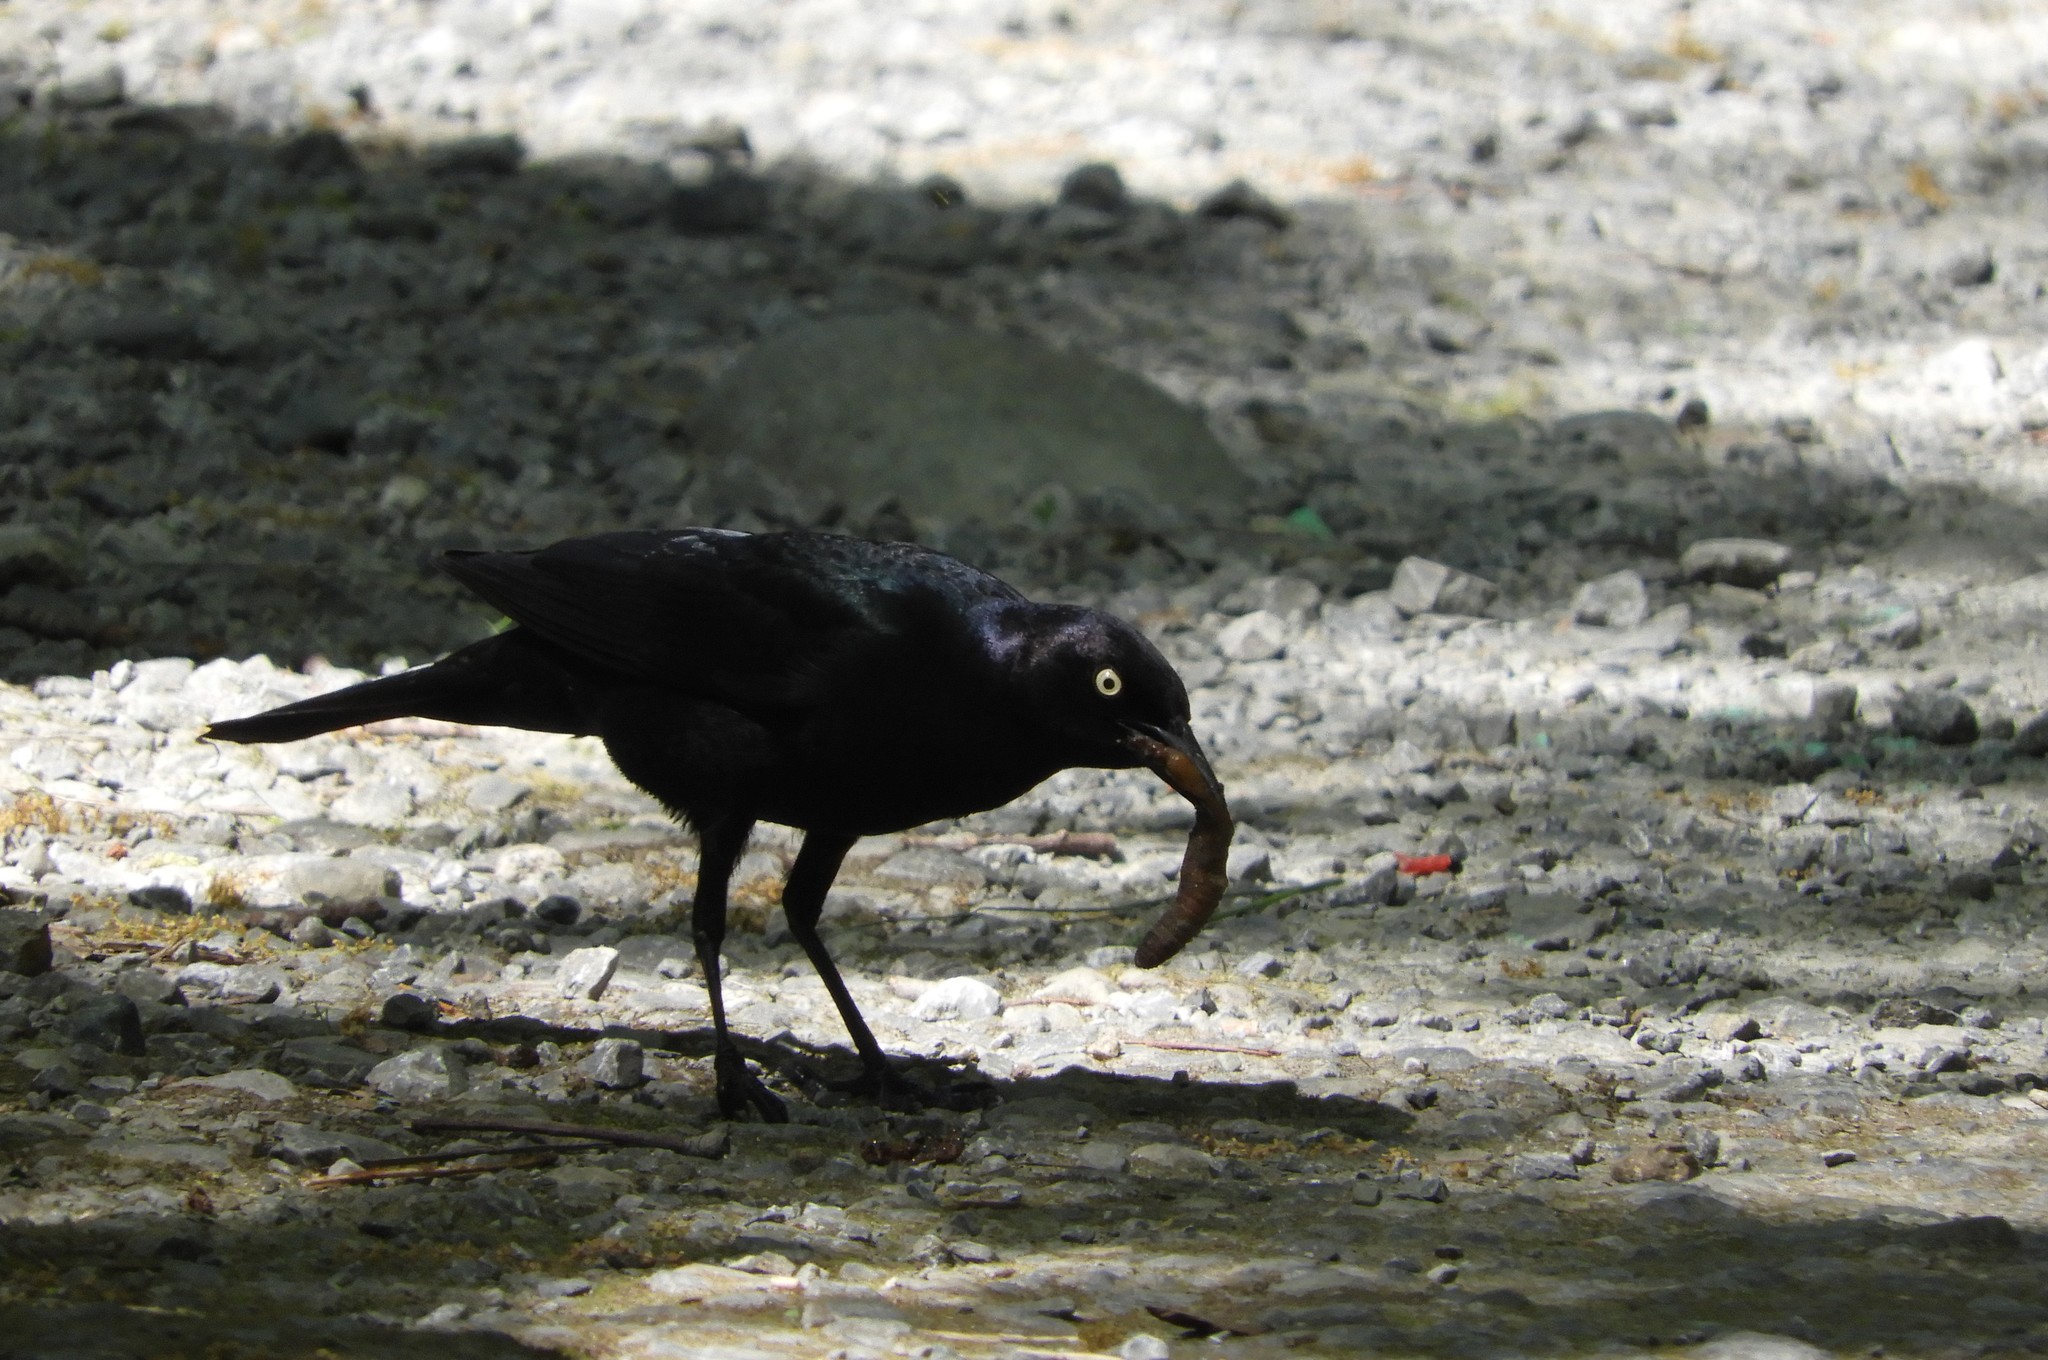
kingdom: Animalia
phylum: Chordata
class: Aves
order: Passeriformes
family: Icteridae
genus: Euphagus
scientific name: Euphagus cyanocephalus
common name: Brewer's blackbird
